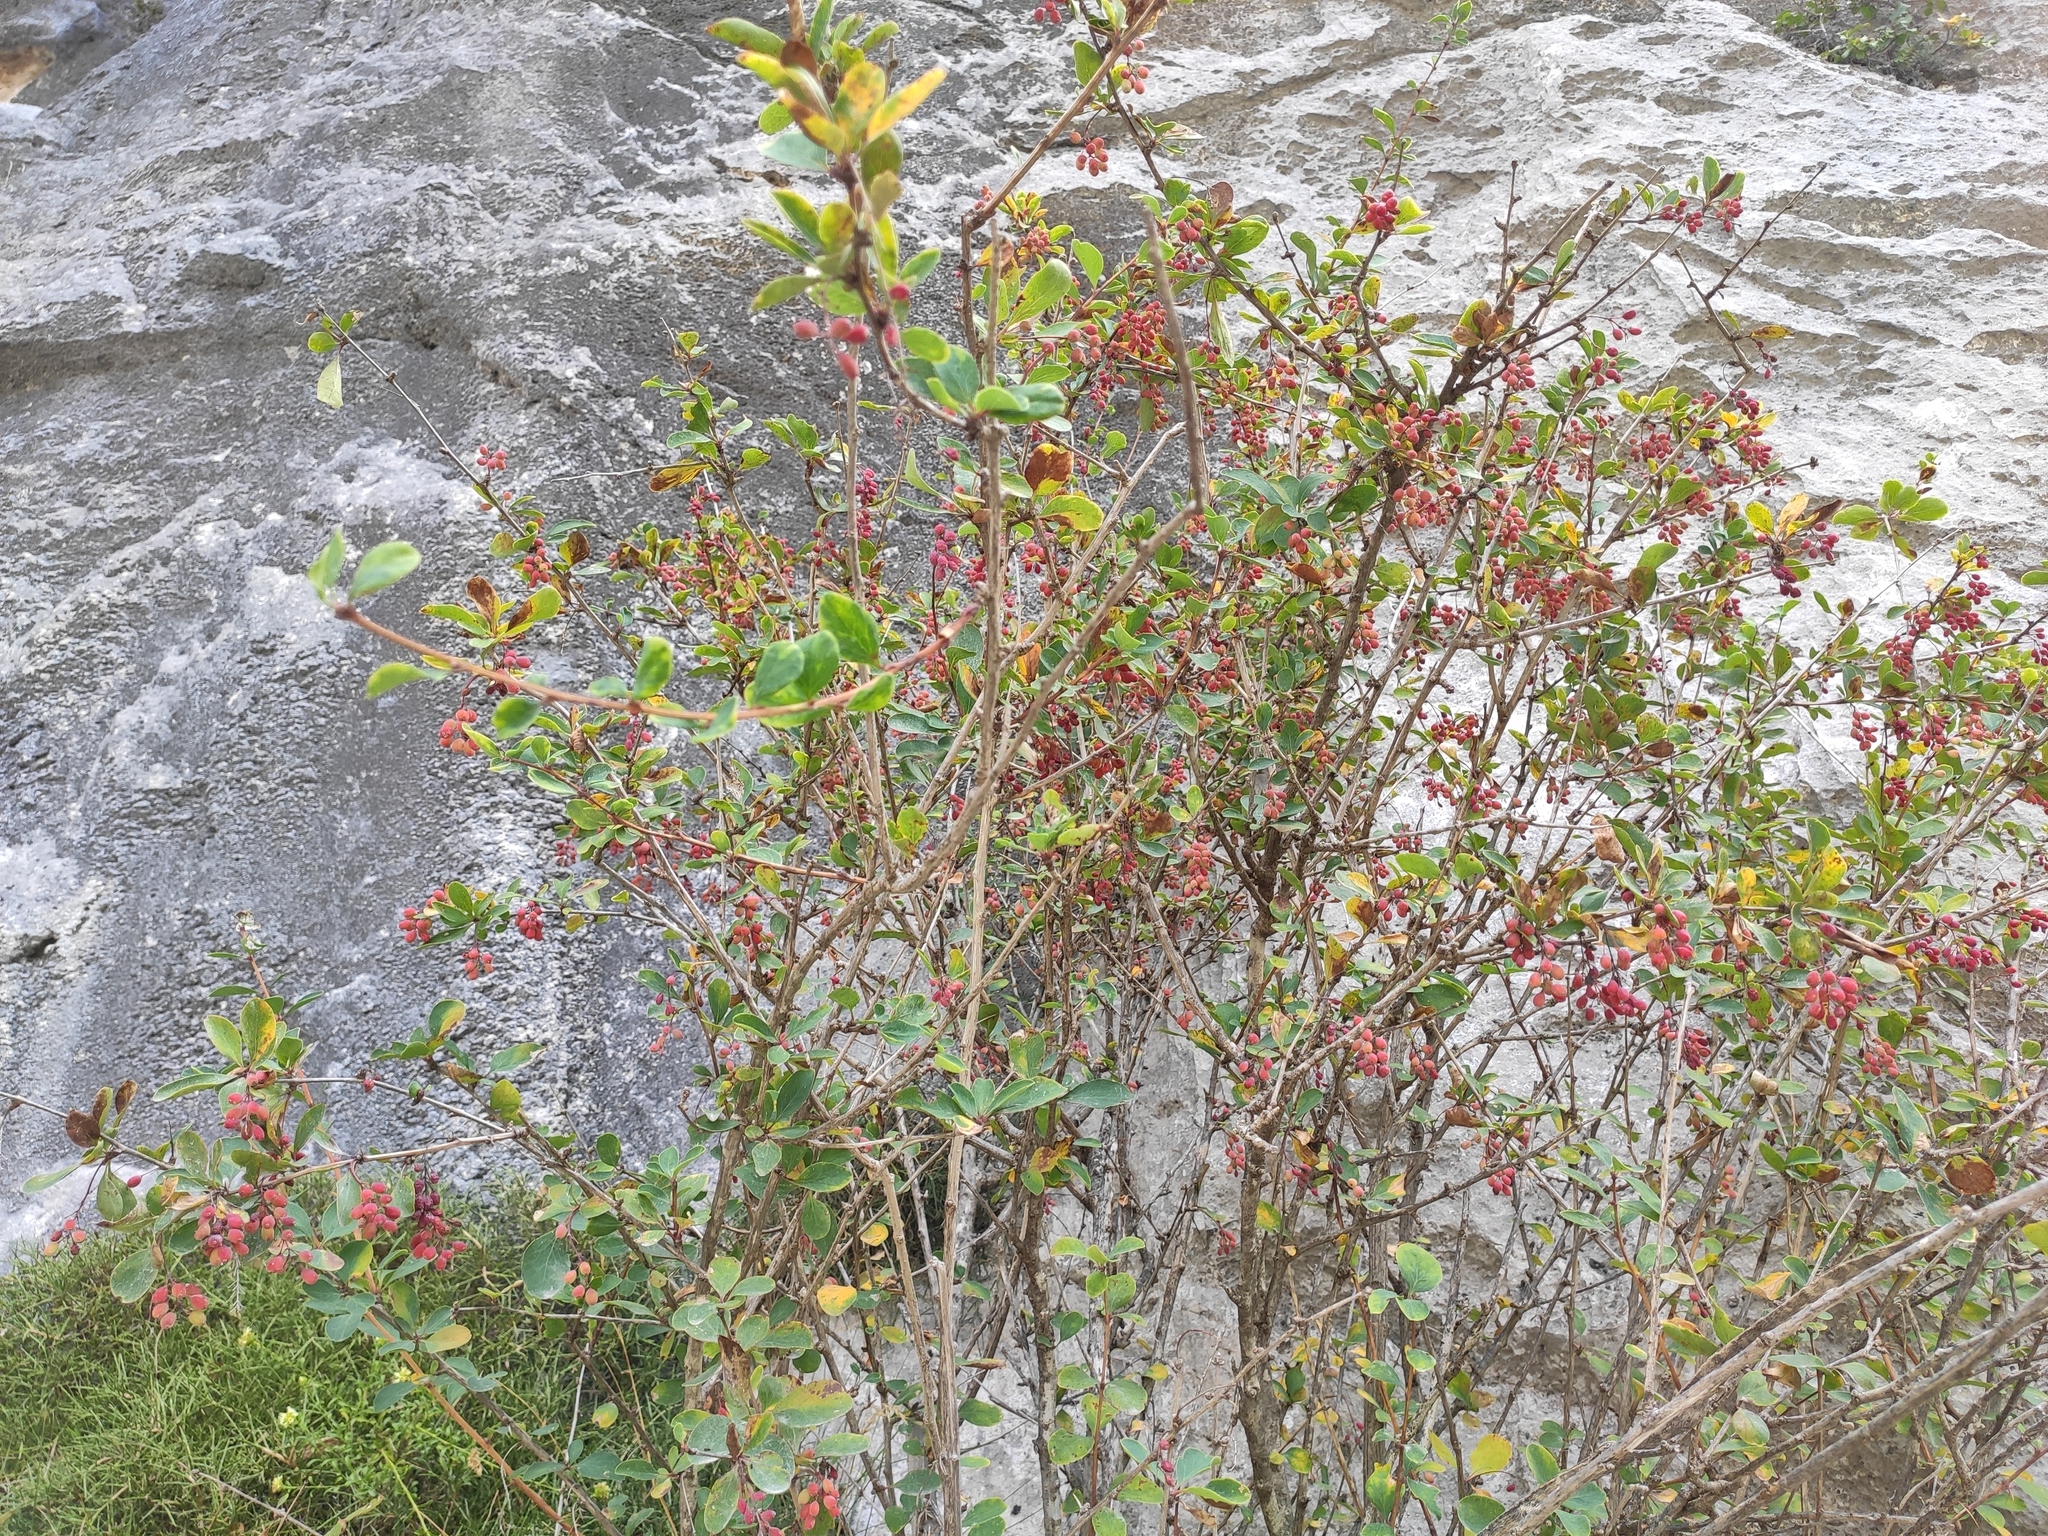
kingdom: Plantae
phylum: Tracheophyta
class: Magnoliopsida
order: Ranunculales
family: Berberidaceae
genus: Berberis
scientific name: Berberis vulgaris
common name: Barberry
